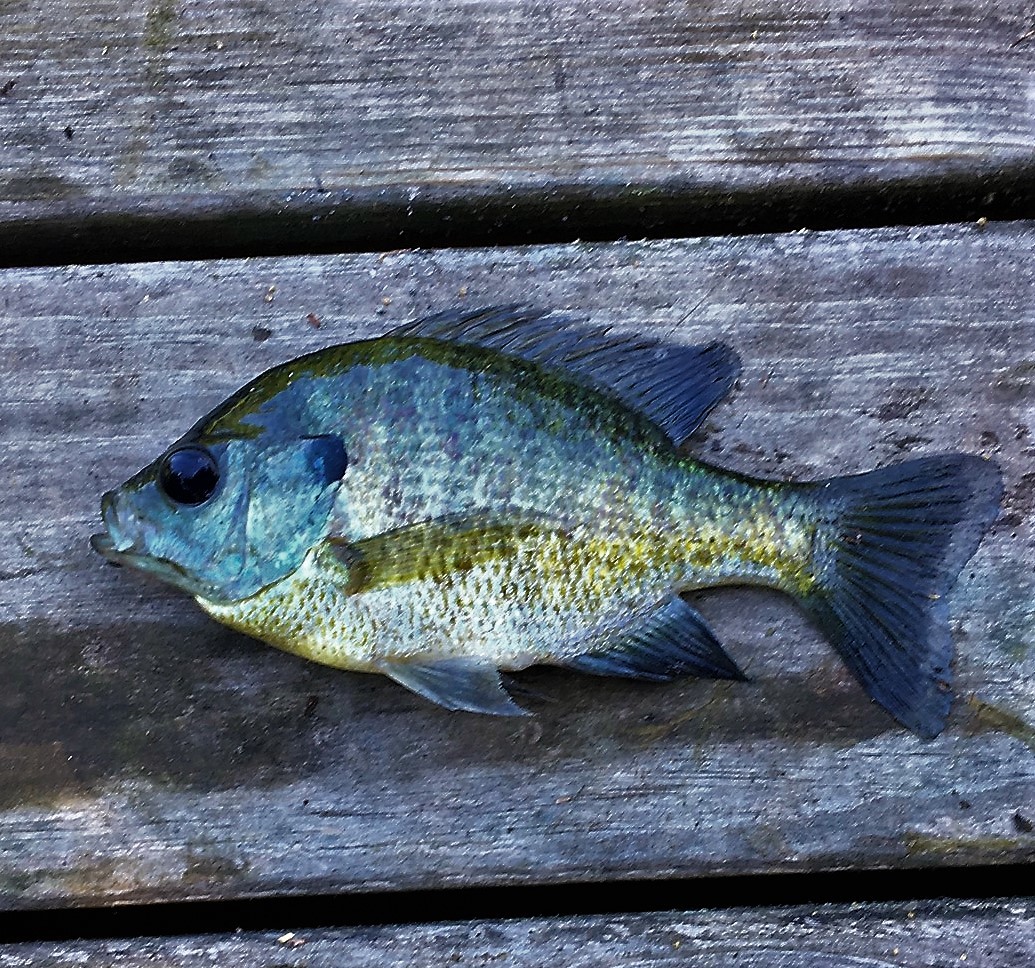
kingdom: Animalia
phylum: Chordata
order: Perciformes
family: Centrarchidae
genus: Lepomis
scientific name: Lepomis macrochirus
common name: Bluegill
